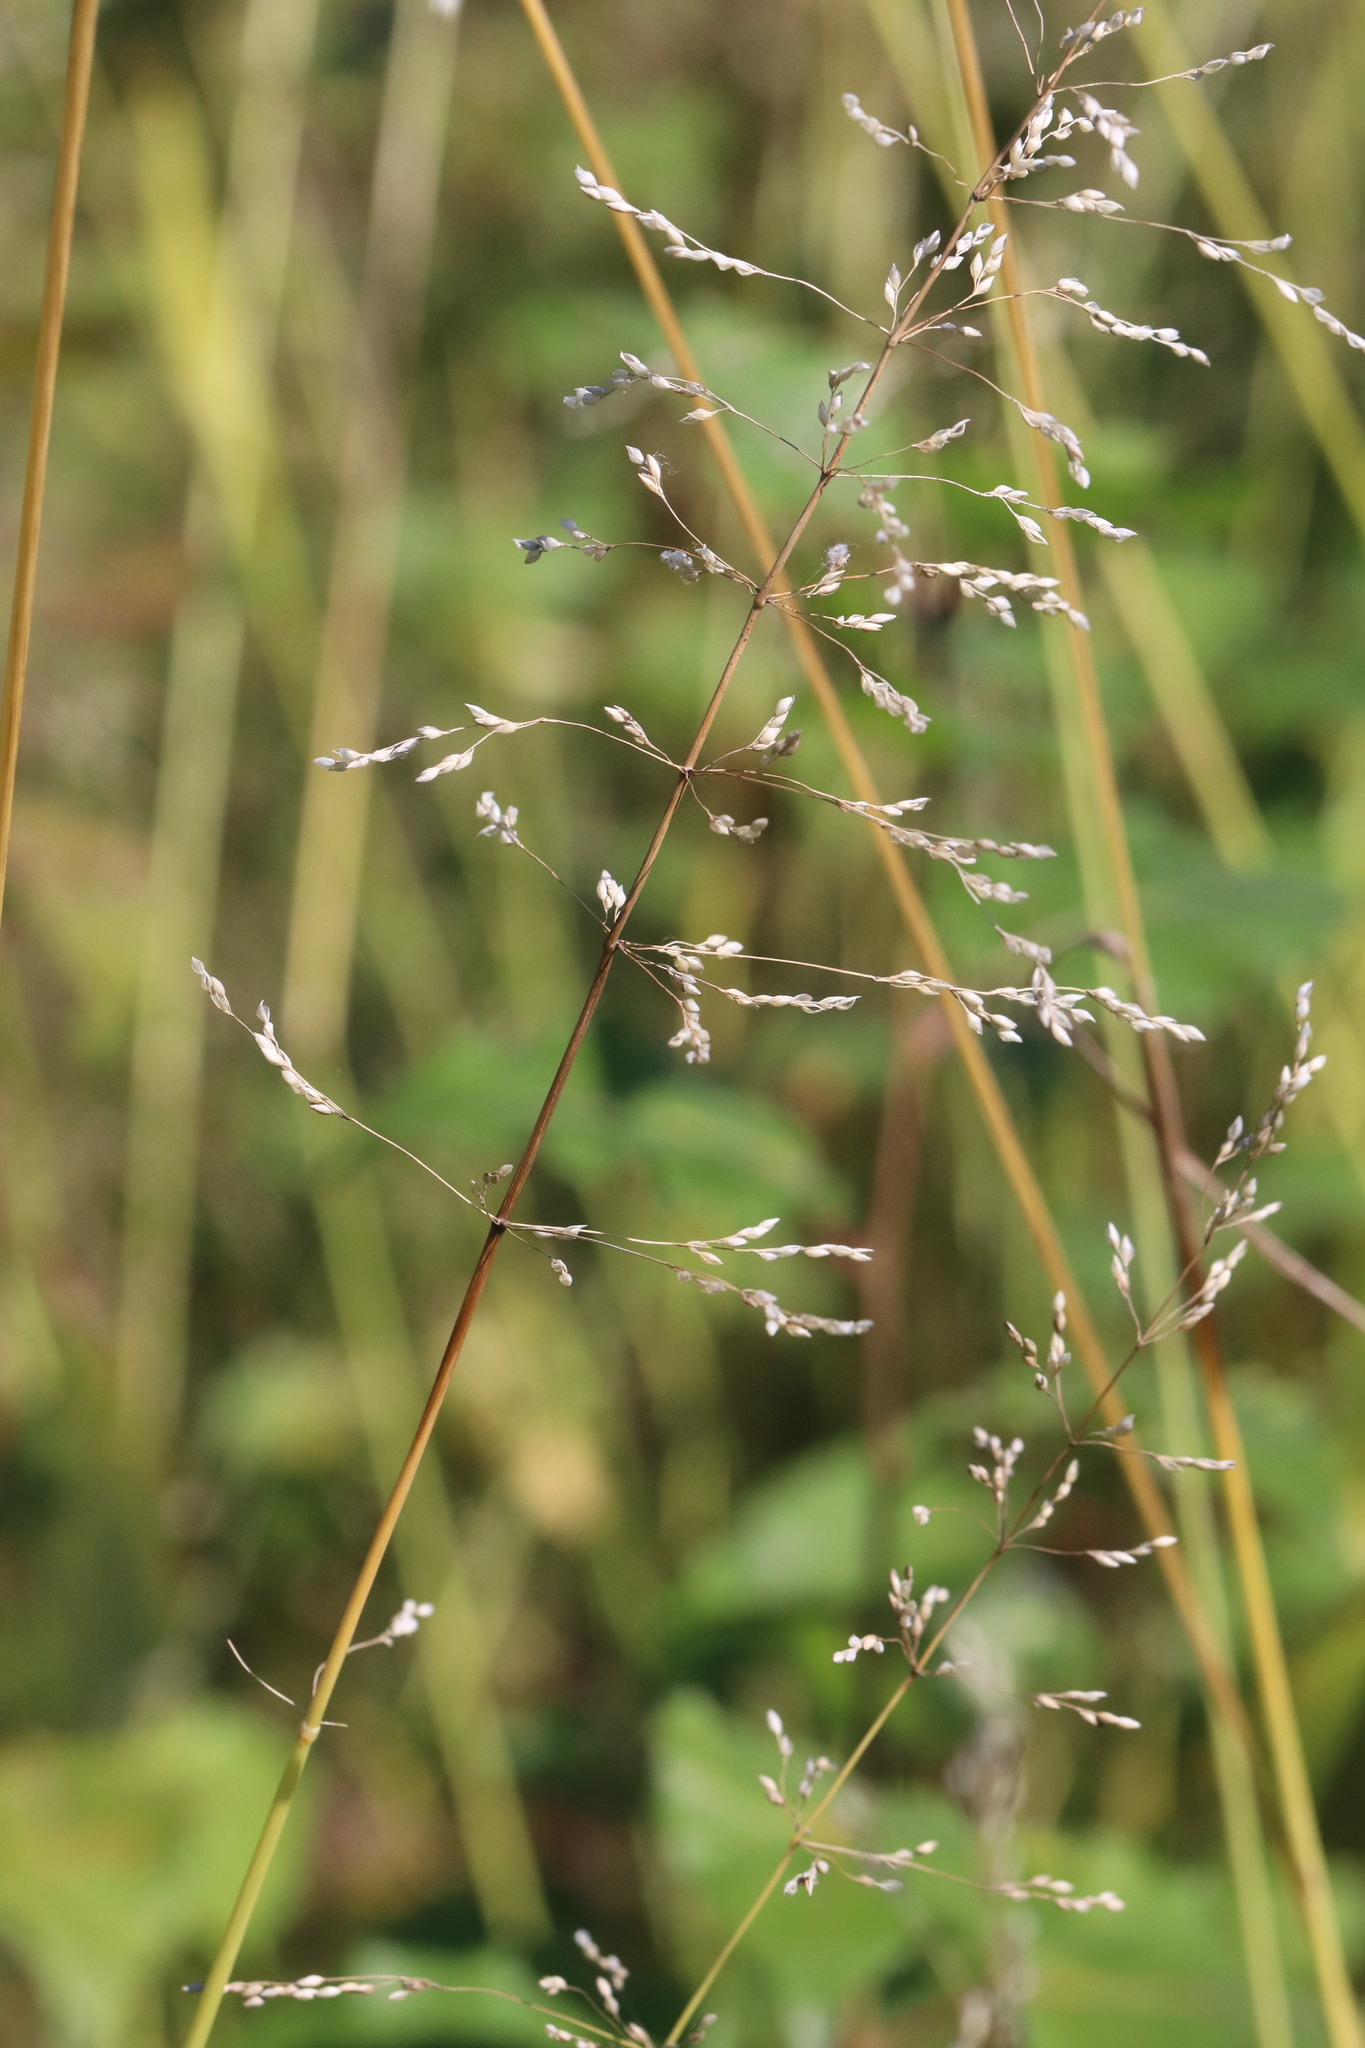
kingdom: Plantae
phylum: Tracheophyta
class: Liliopsida
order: Poales
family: Poaceae
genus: Milium
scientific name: Milium effusum
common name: Wood millet
